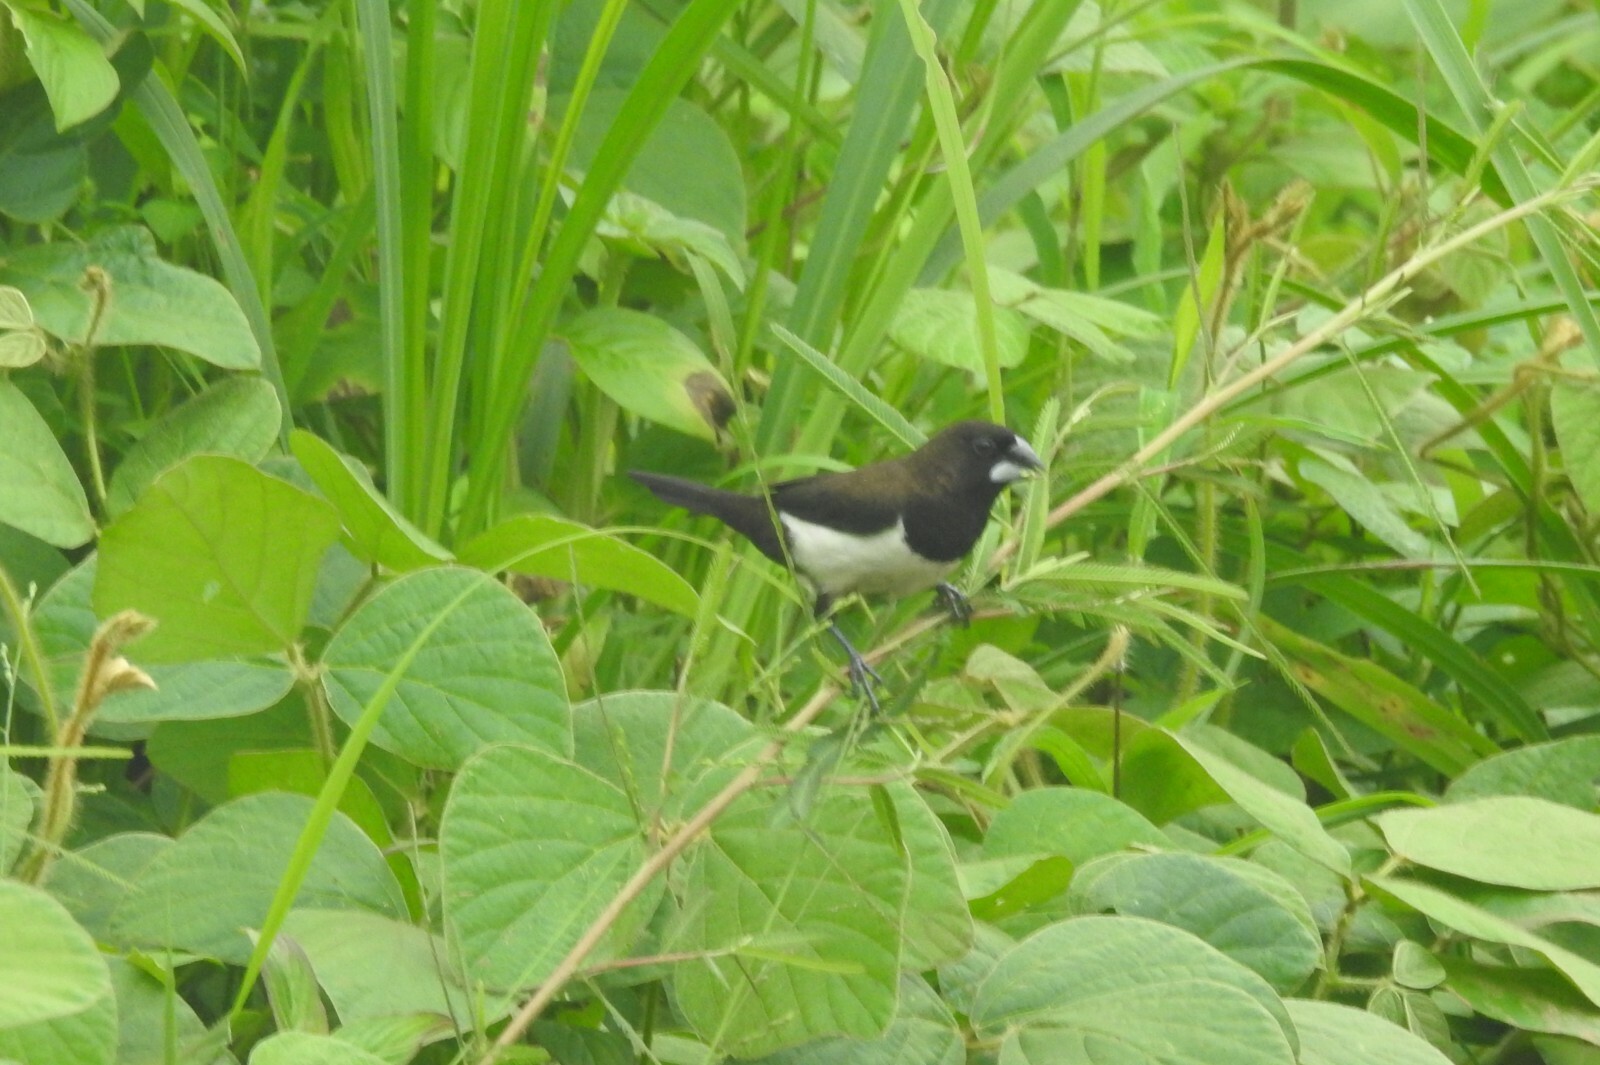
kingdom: Animalia
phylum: Chordata
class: Aves
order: Passeriformes
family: Estrildidae
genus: Lonchura
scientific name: Lonchura striata
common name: White-rumped munia
